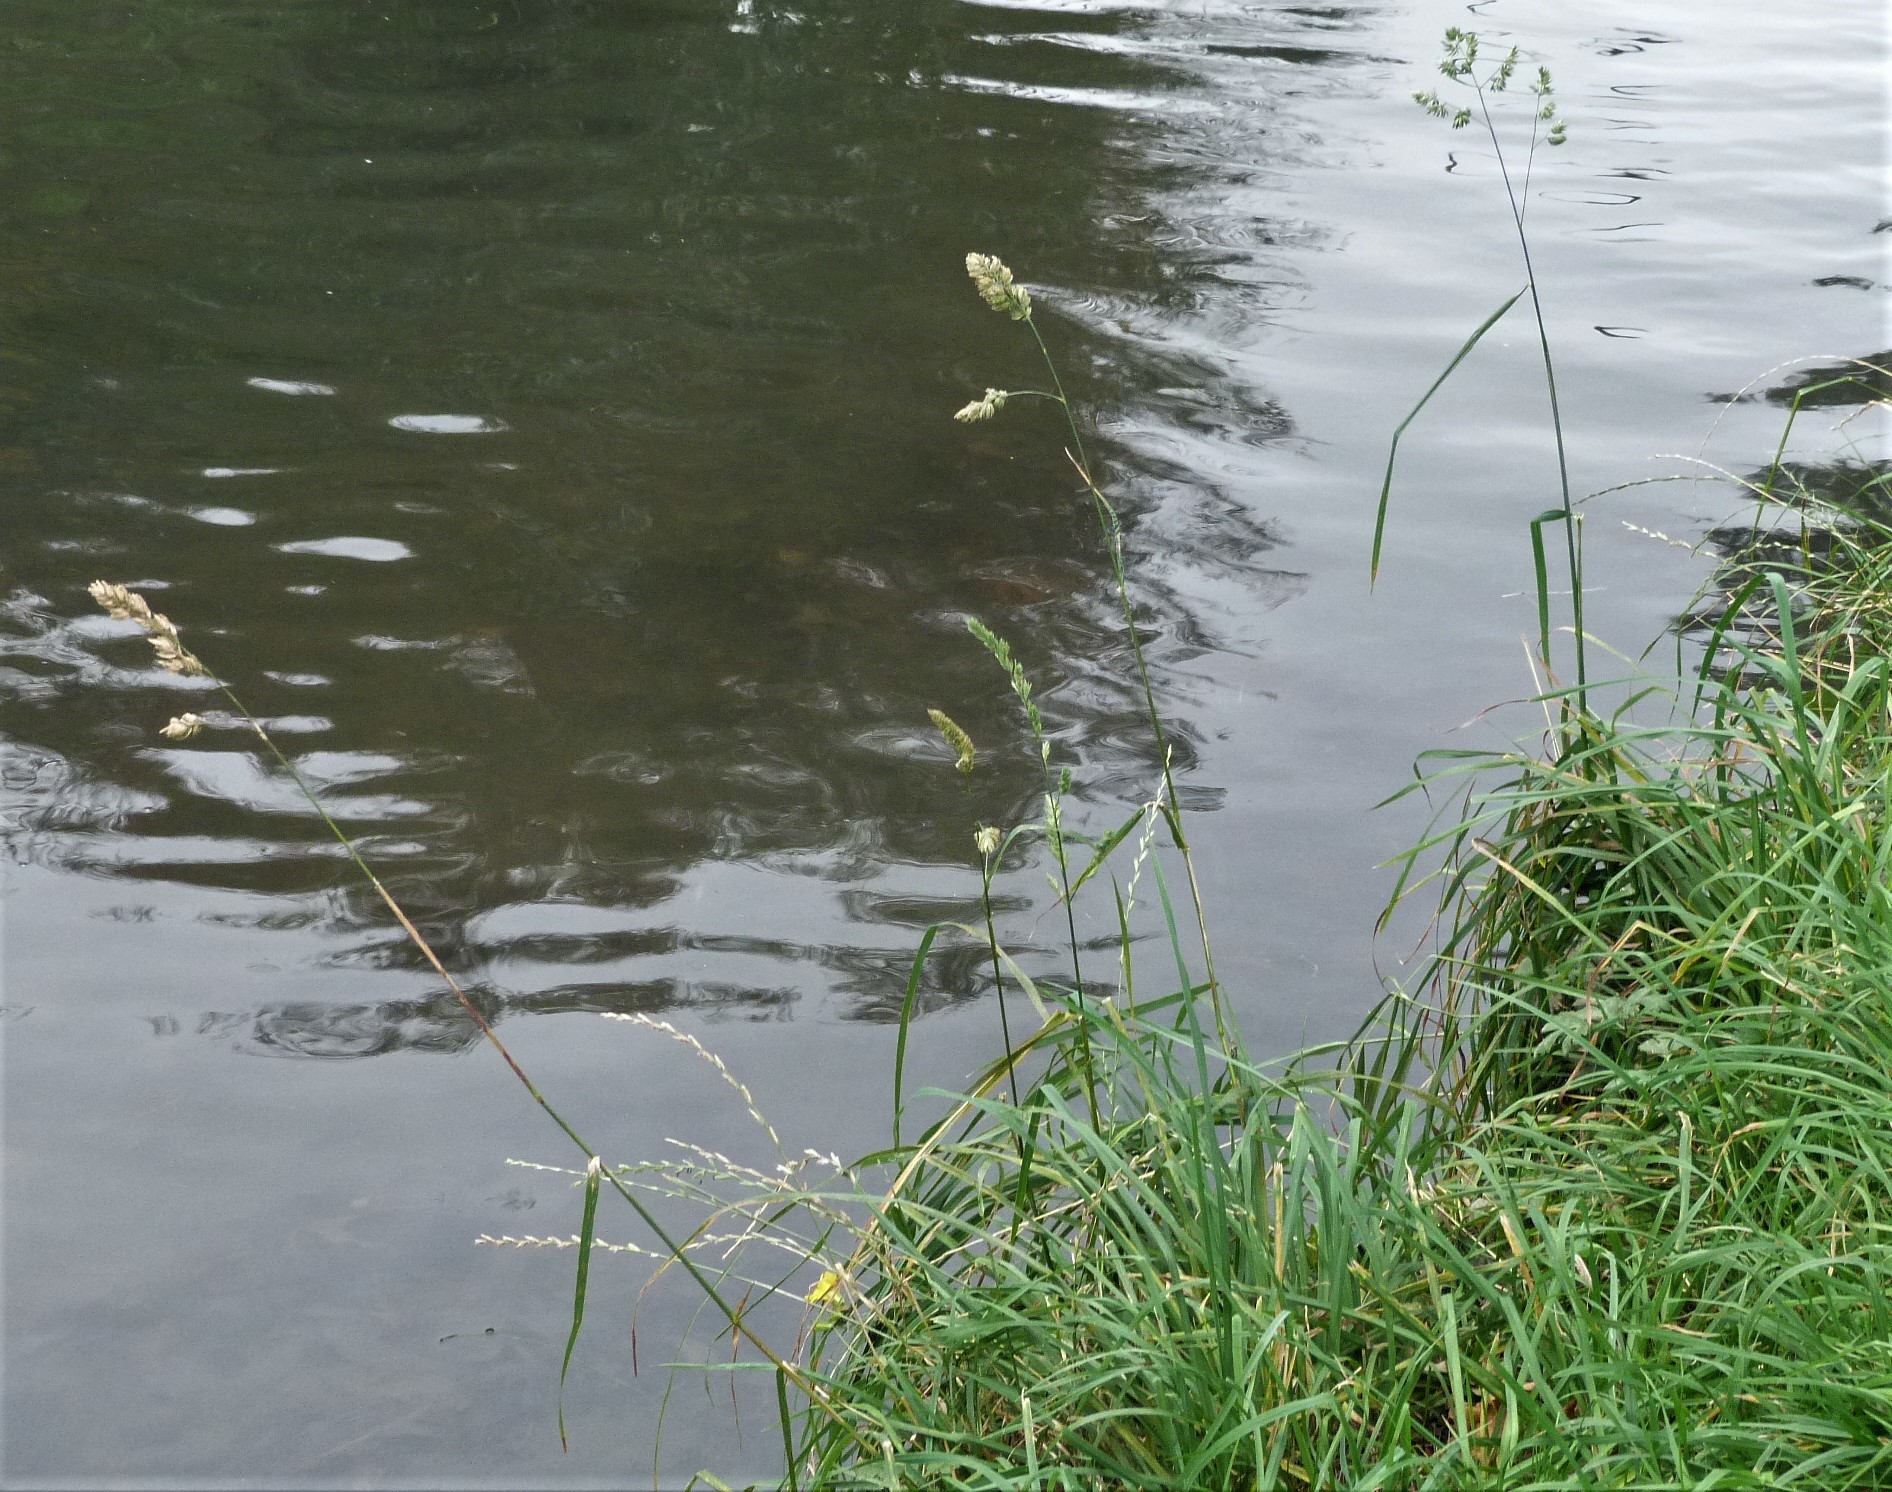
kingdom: Plantae
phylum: Tracheophyta
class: Liliopsida
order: Poales
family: Poaceae
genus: Dactylis
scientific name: Dactylis glomerata
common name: Orchardgrass
